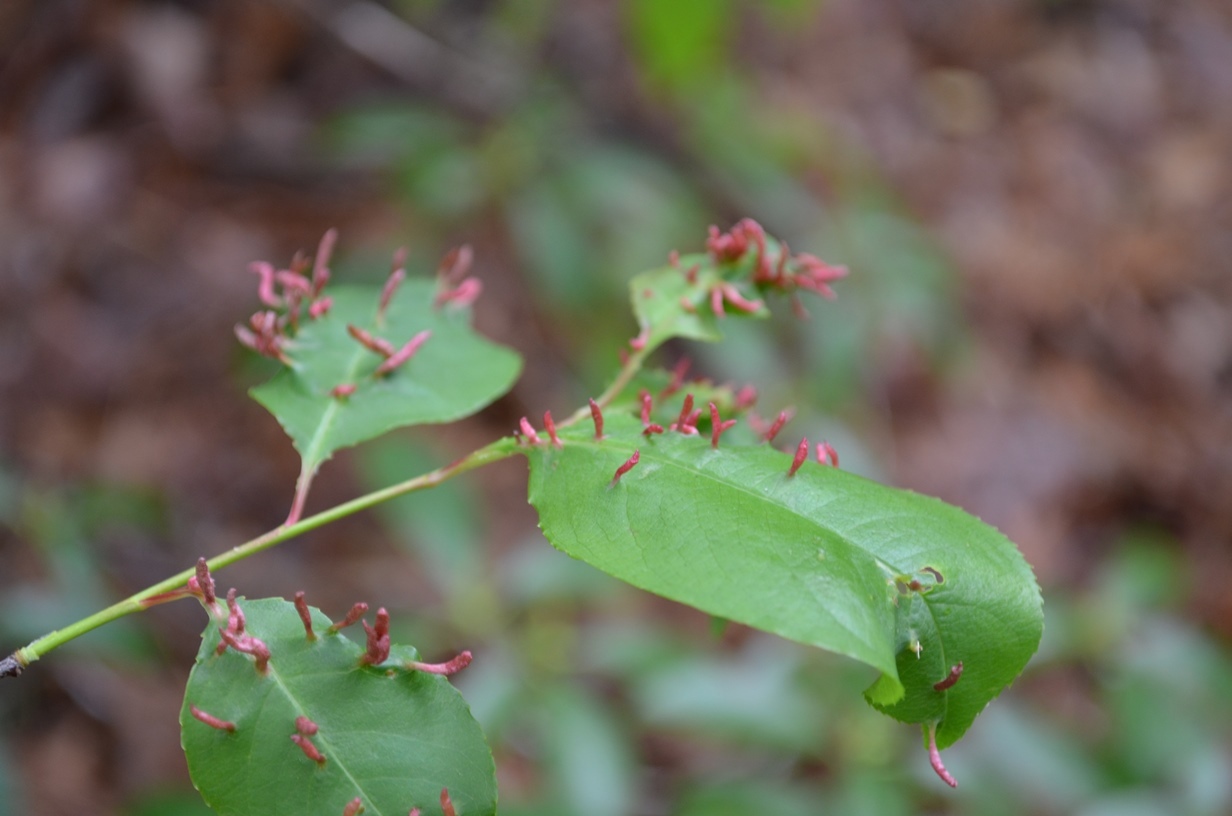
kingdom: Animalia
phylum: Arthropoda
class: Arachnida
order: Trombidiformes
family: Eriophyidae
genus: Eriophyes
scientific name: Eriophyes
